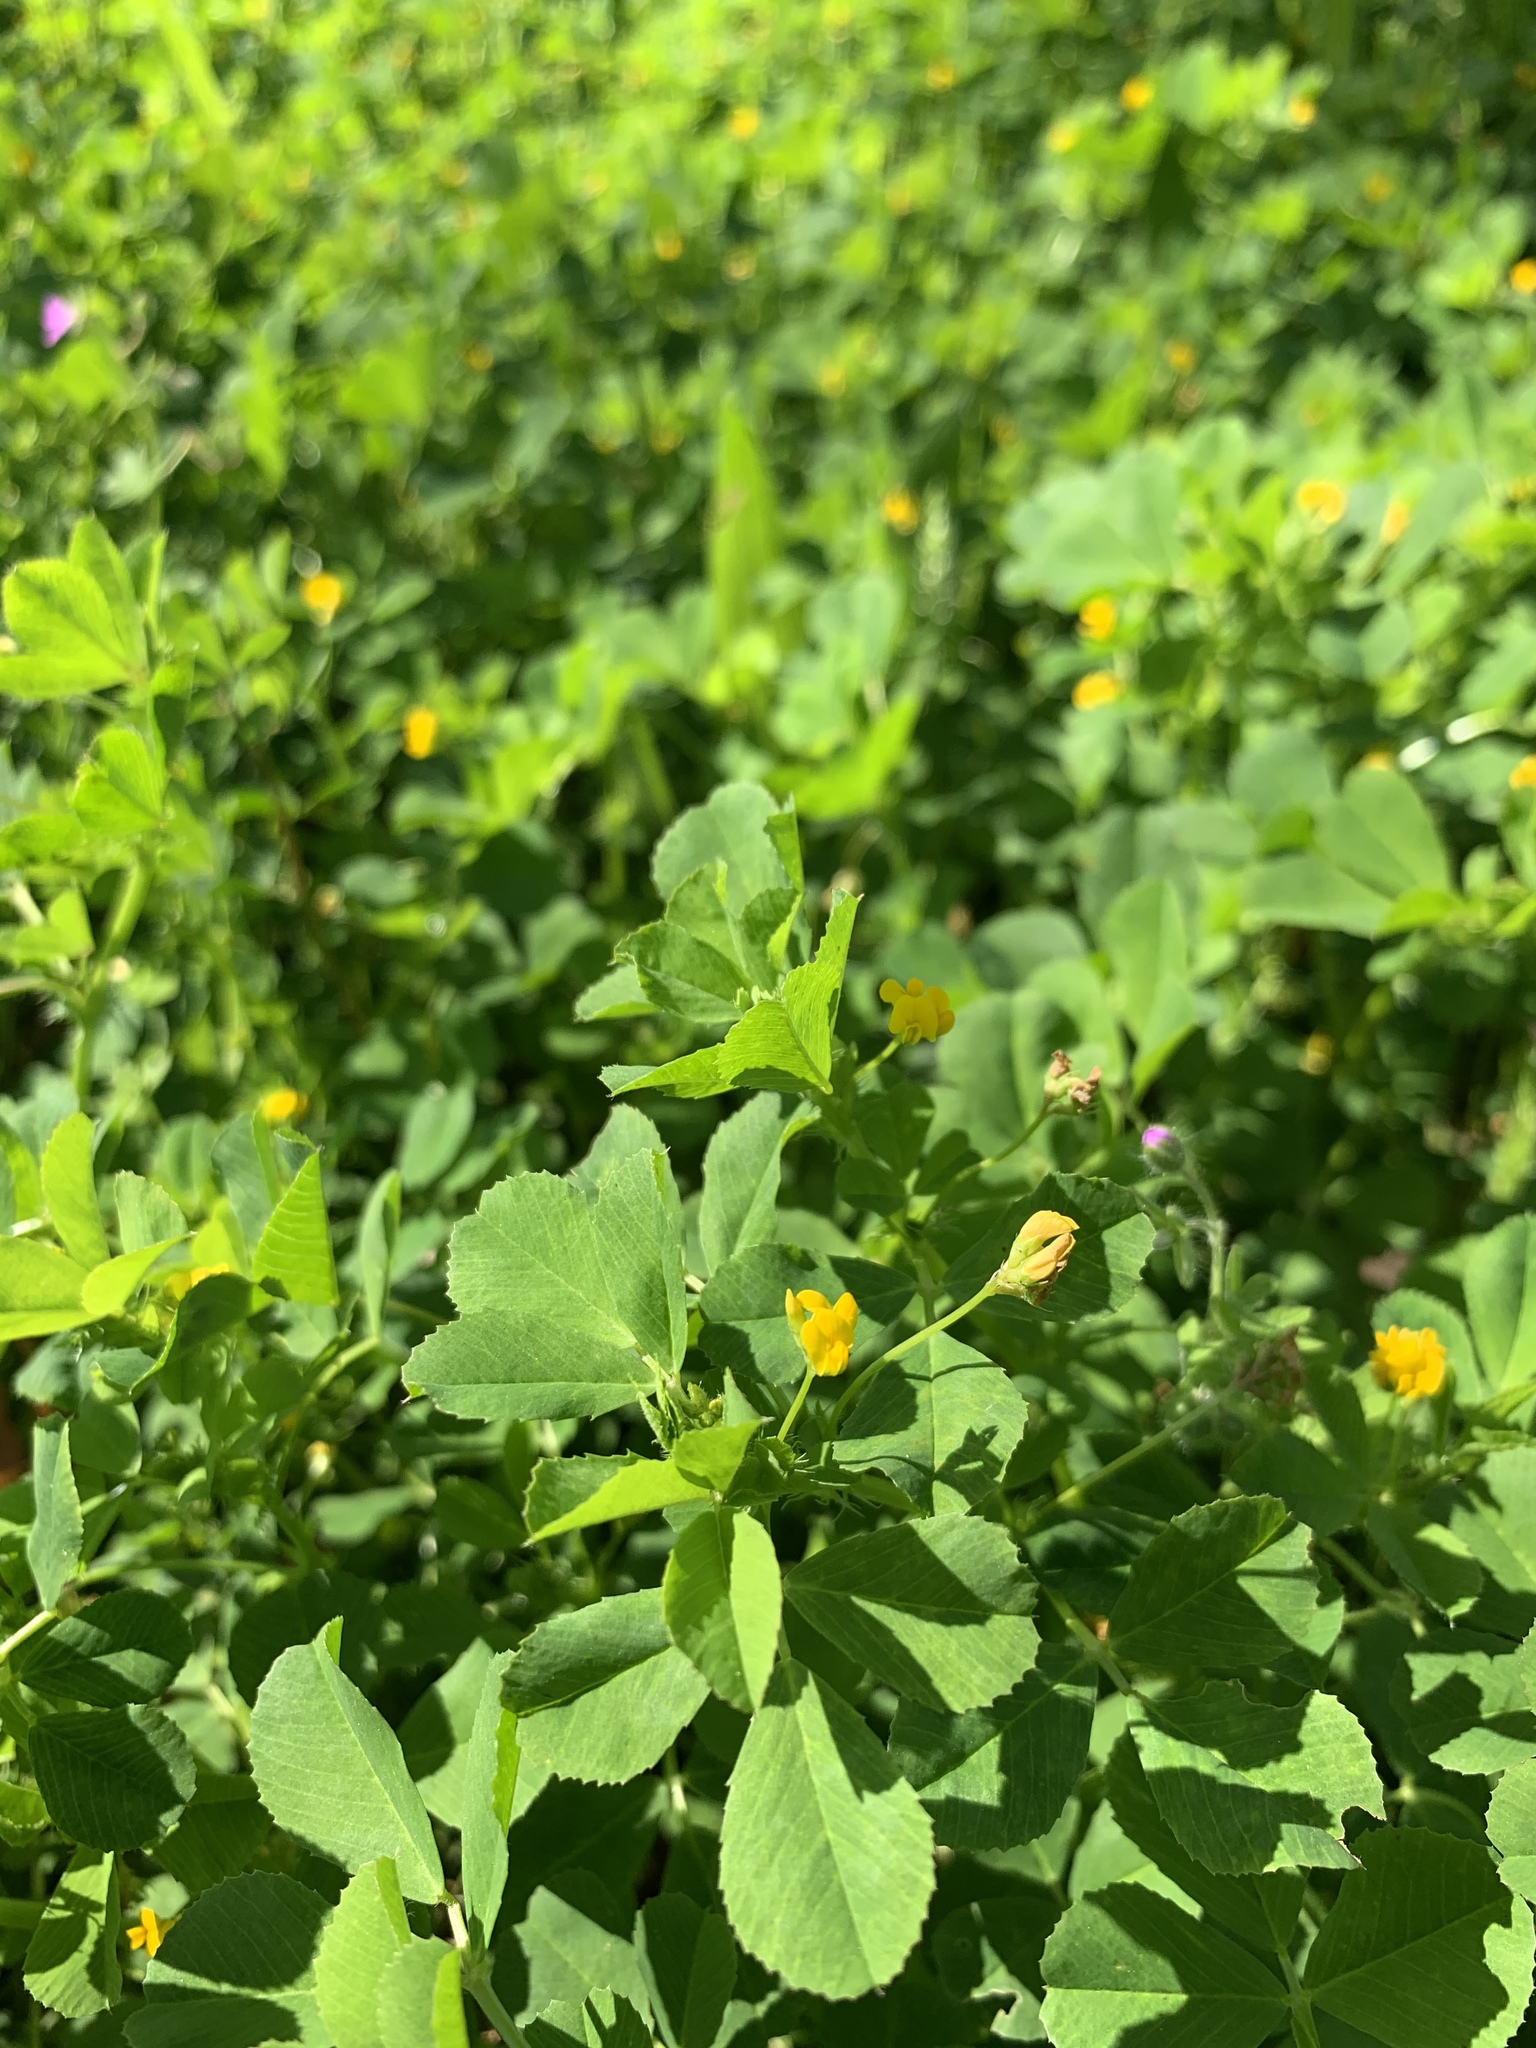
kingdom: Plantae
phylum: Tracheophyta
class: Magnoliopsida
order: Fabales
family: Fabaceae
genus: Medicago
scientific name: Medicago polymorpha
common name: Burclover
